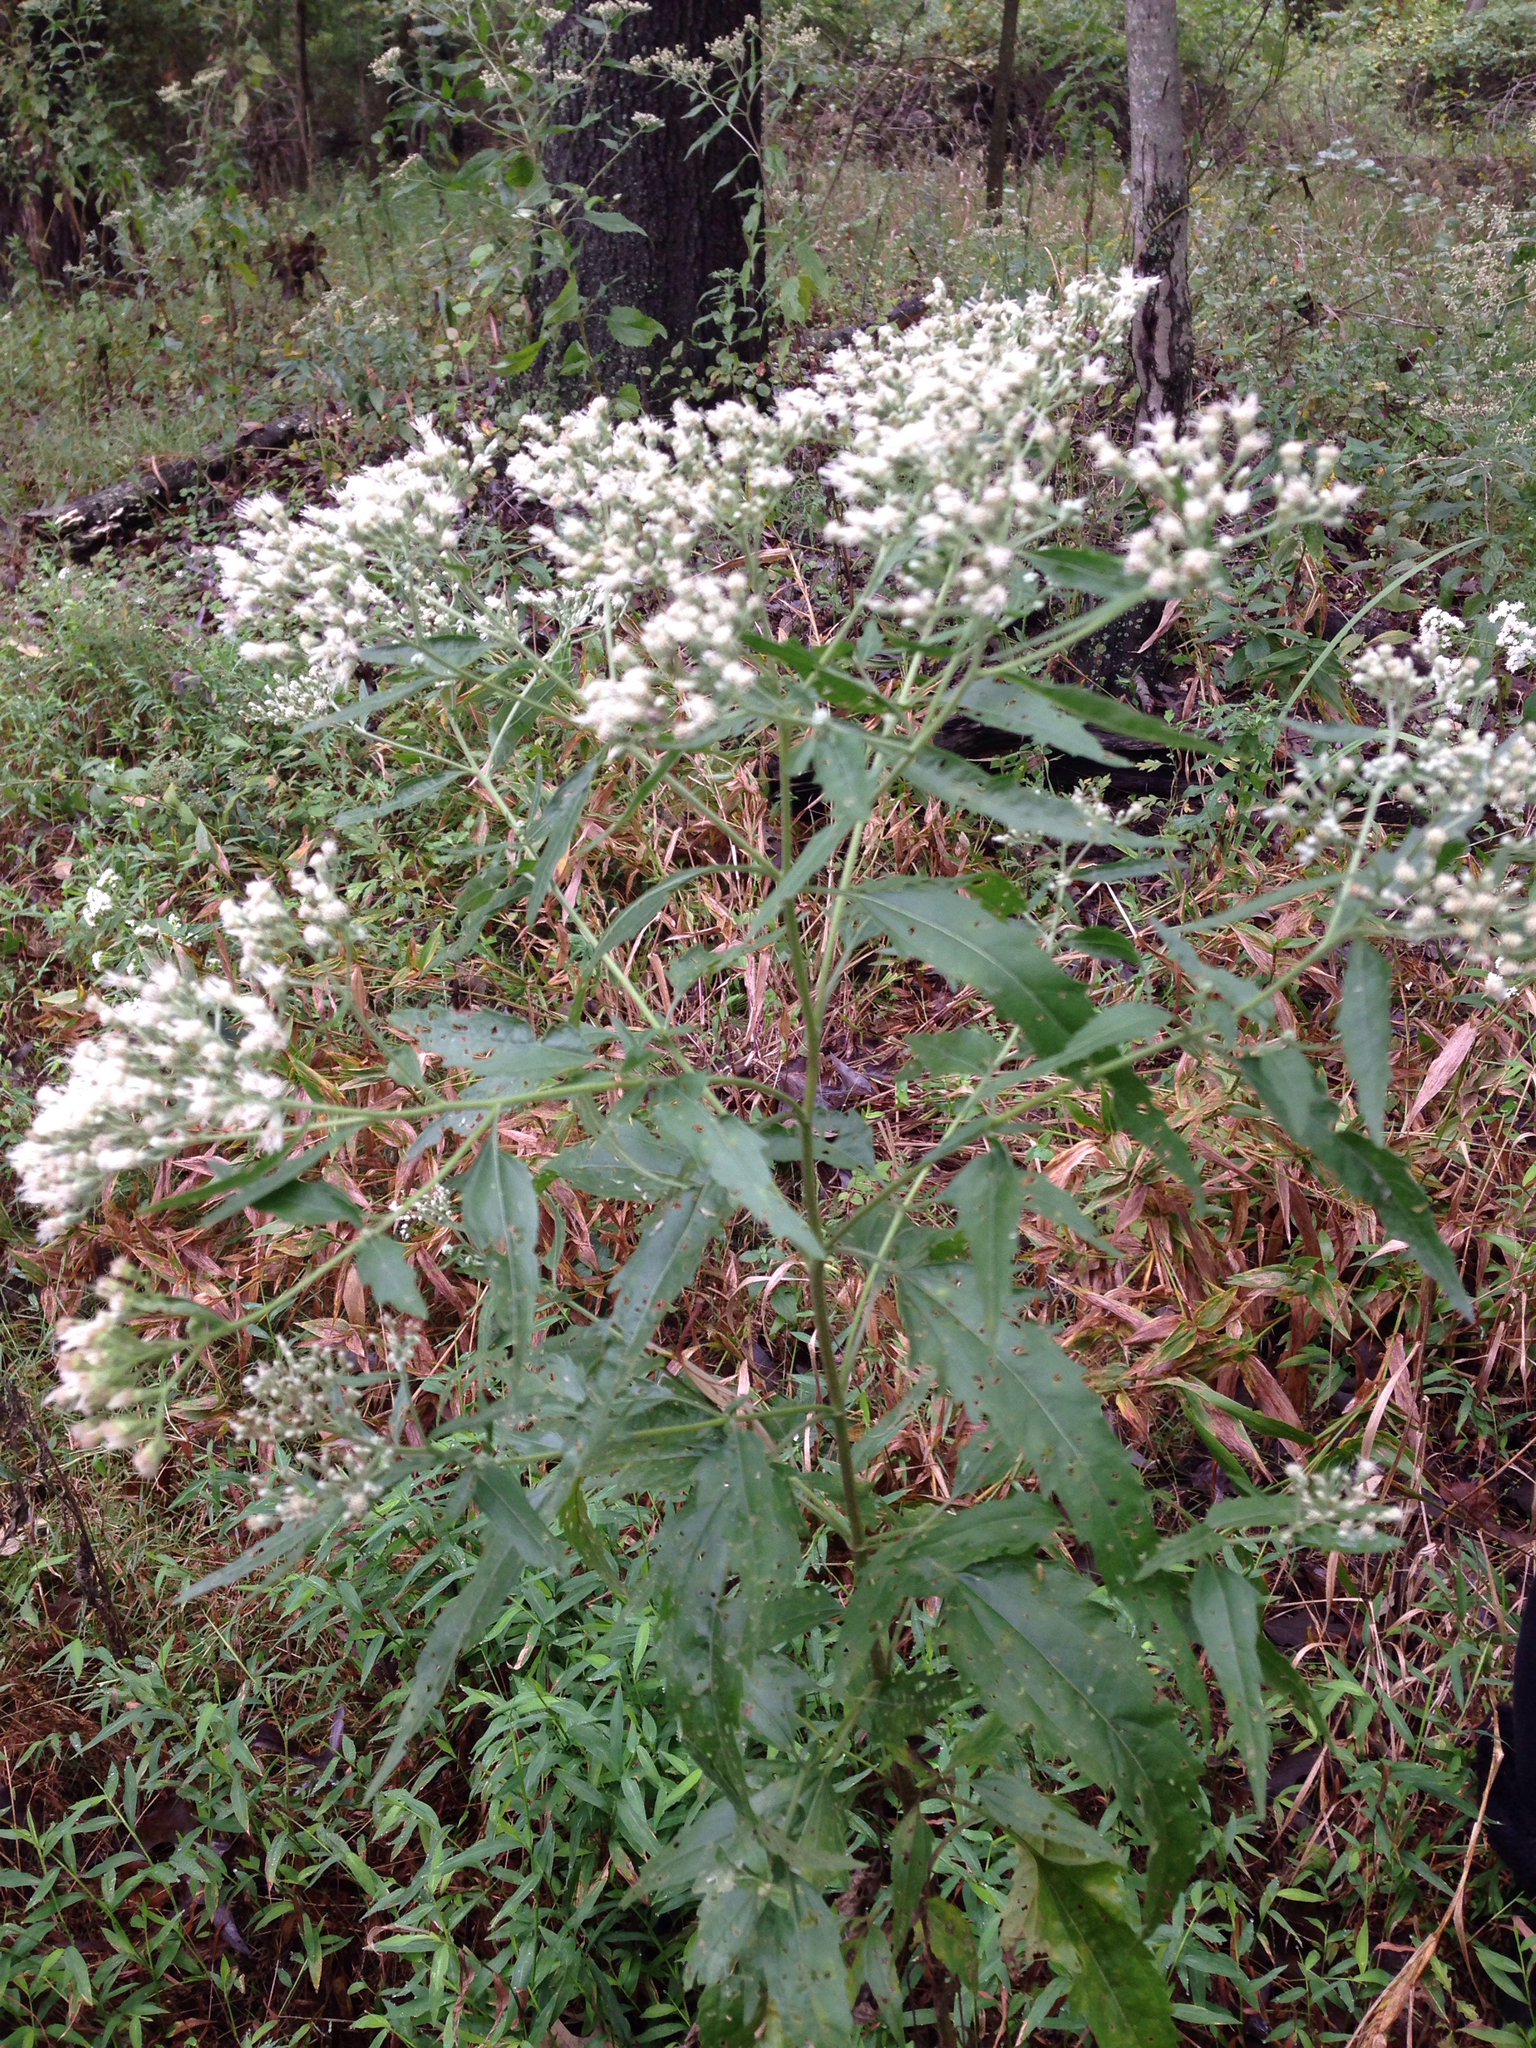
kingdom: Plantae
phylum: Tracheophyta
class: Magnoliopsida
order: Asterales
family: Asteraceae
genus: Eupatorium
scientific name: Eupatorium serotinum
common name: Late boneset
